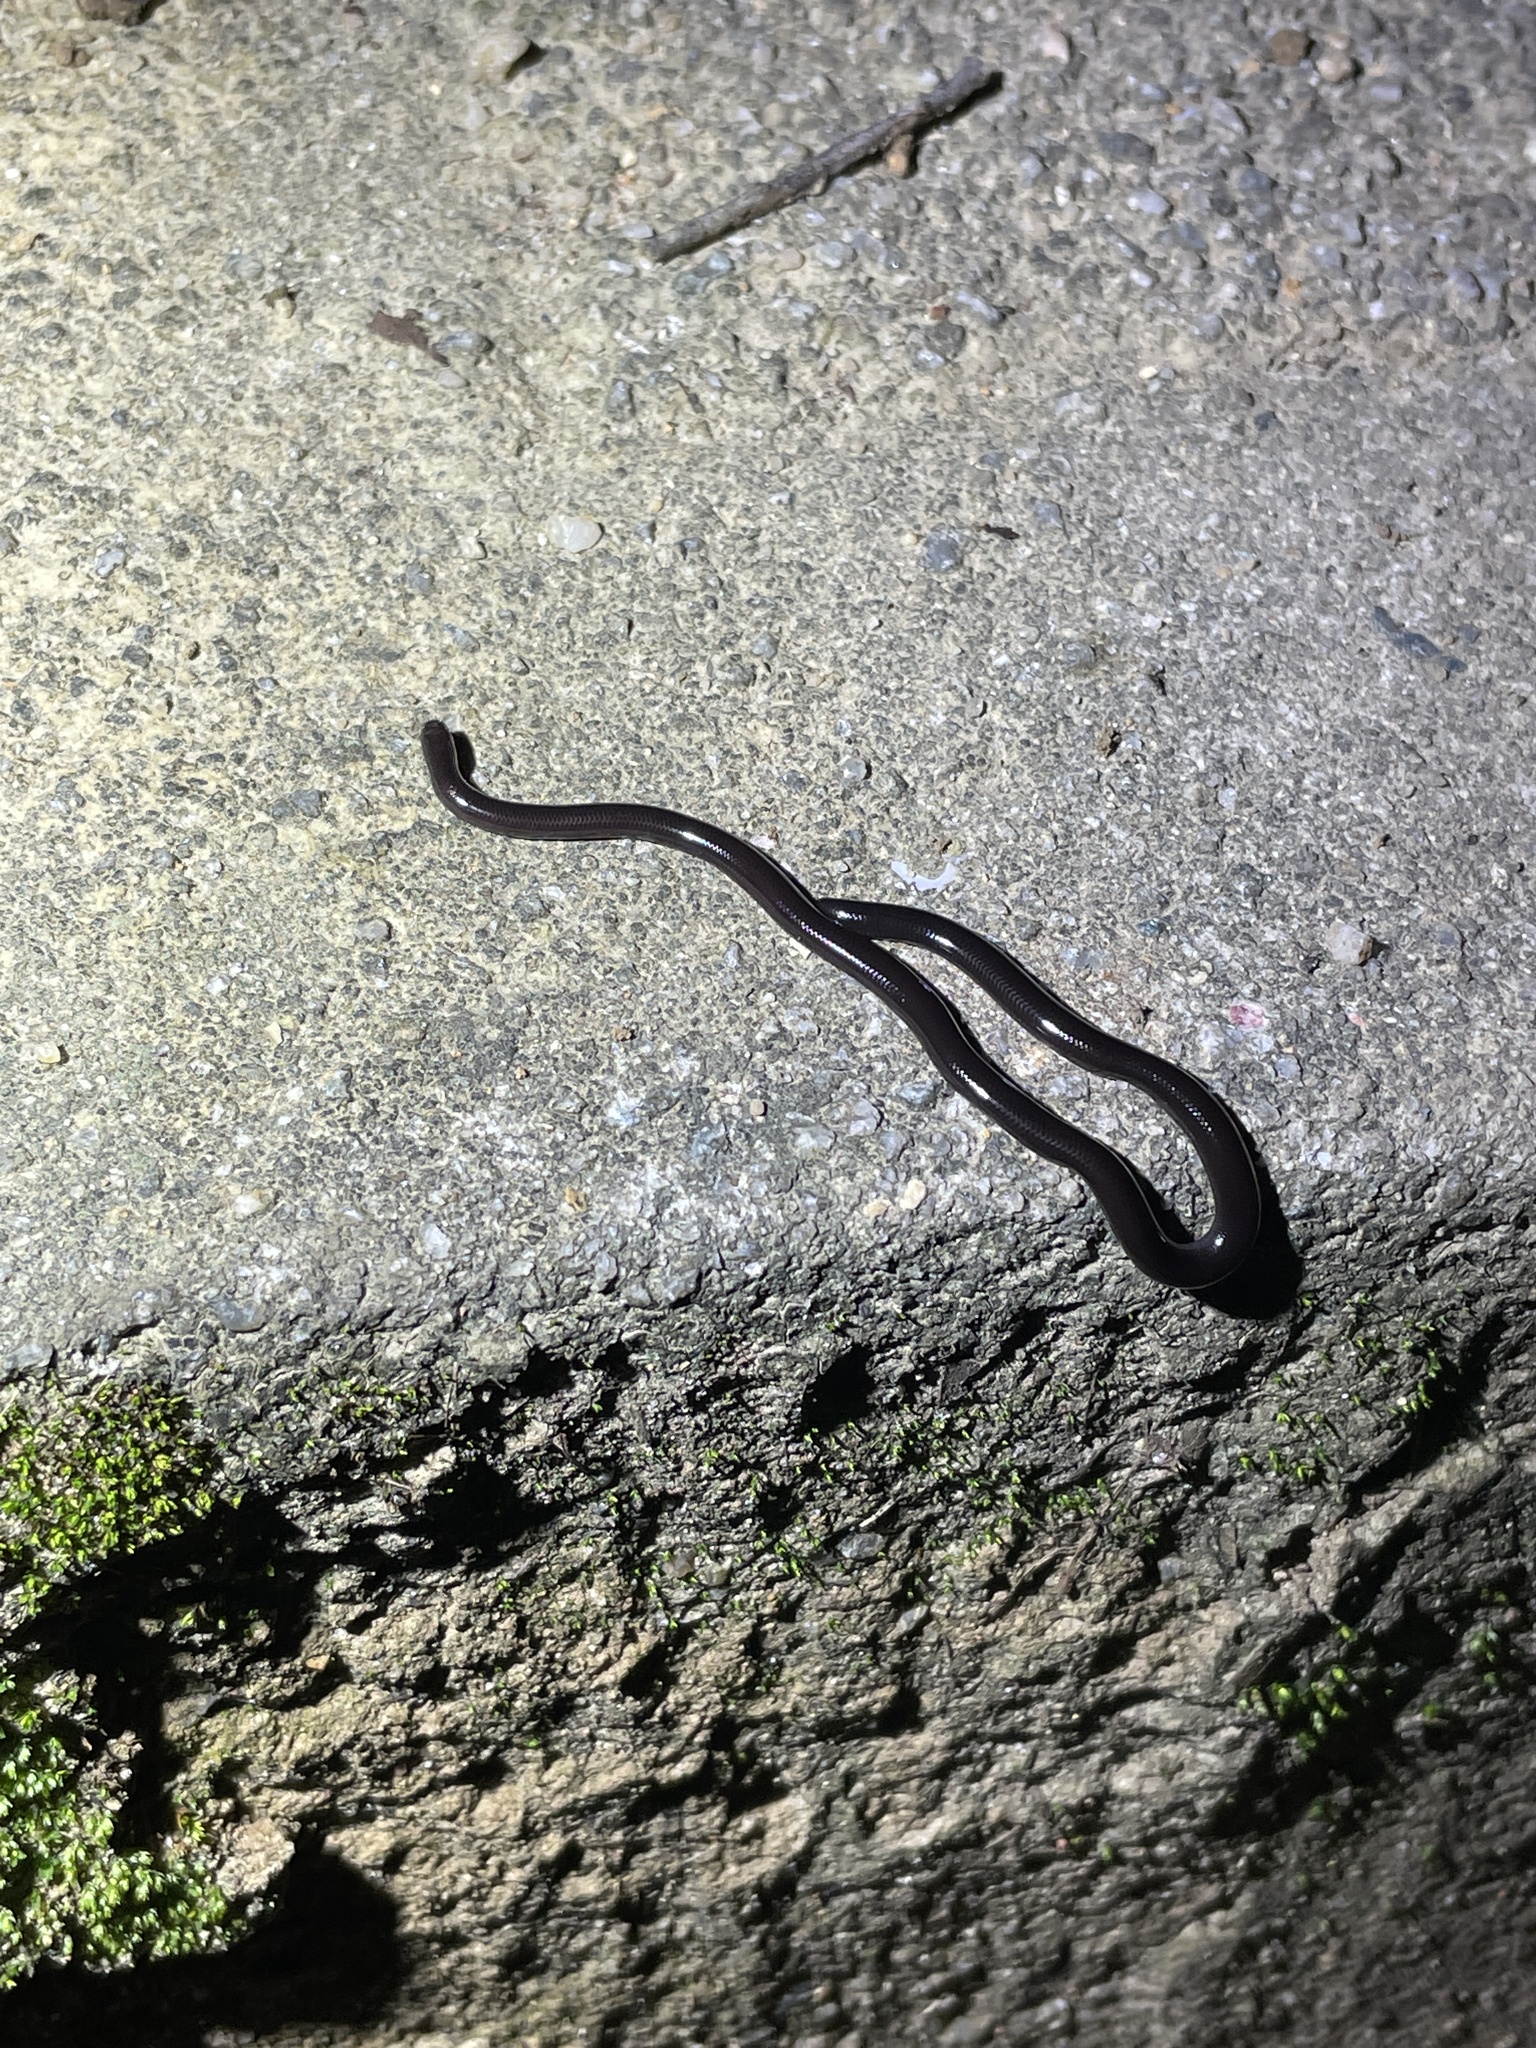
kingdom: Animalia
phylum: Chordata
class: Squamata
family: Typhlopidae
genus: Indotyphlops
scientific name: Indotyphlops braminus
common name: Brahminy blindsnake
